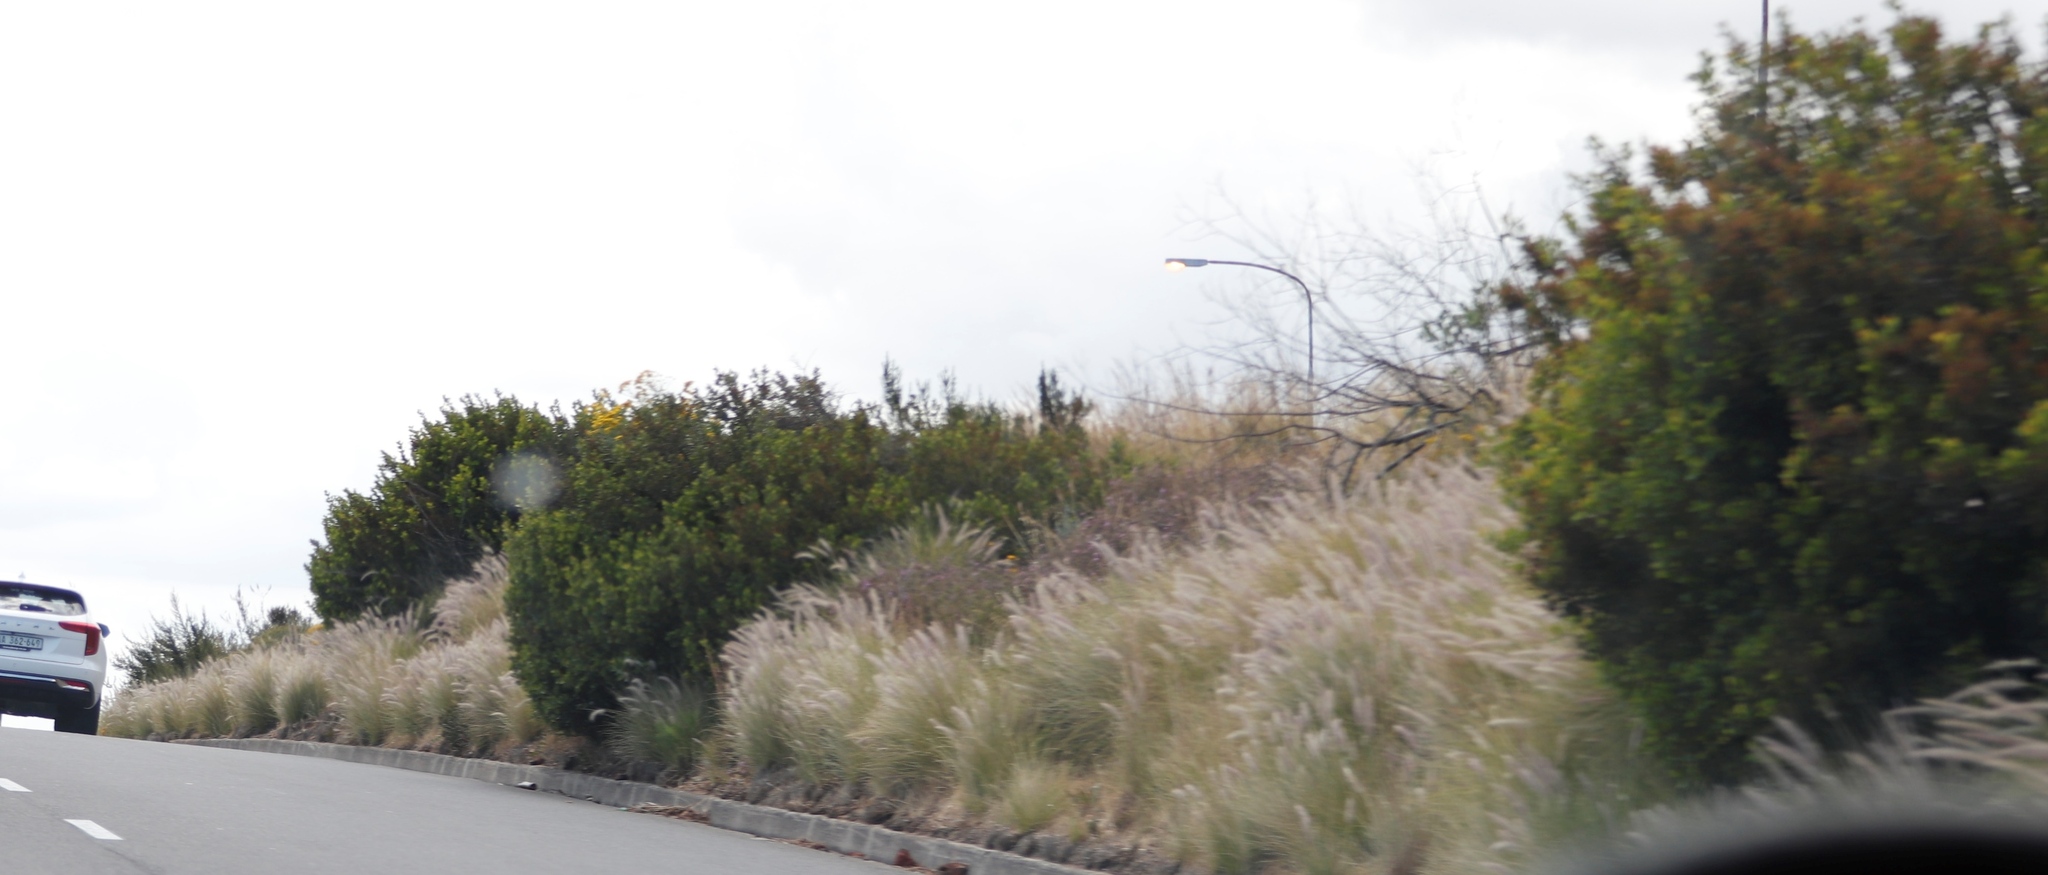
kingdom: Plantae
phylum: Tracheophyta
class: Liliopsida
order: Poales
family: Poaceae
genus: Cenchrus
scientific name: Cenchrus setaceus
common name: Crimson fountaingrass
